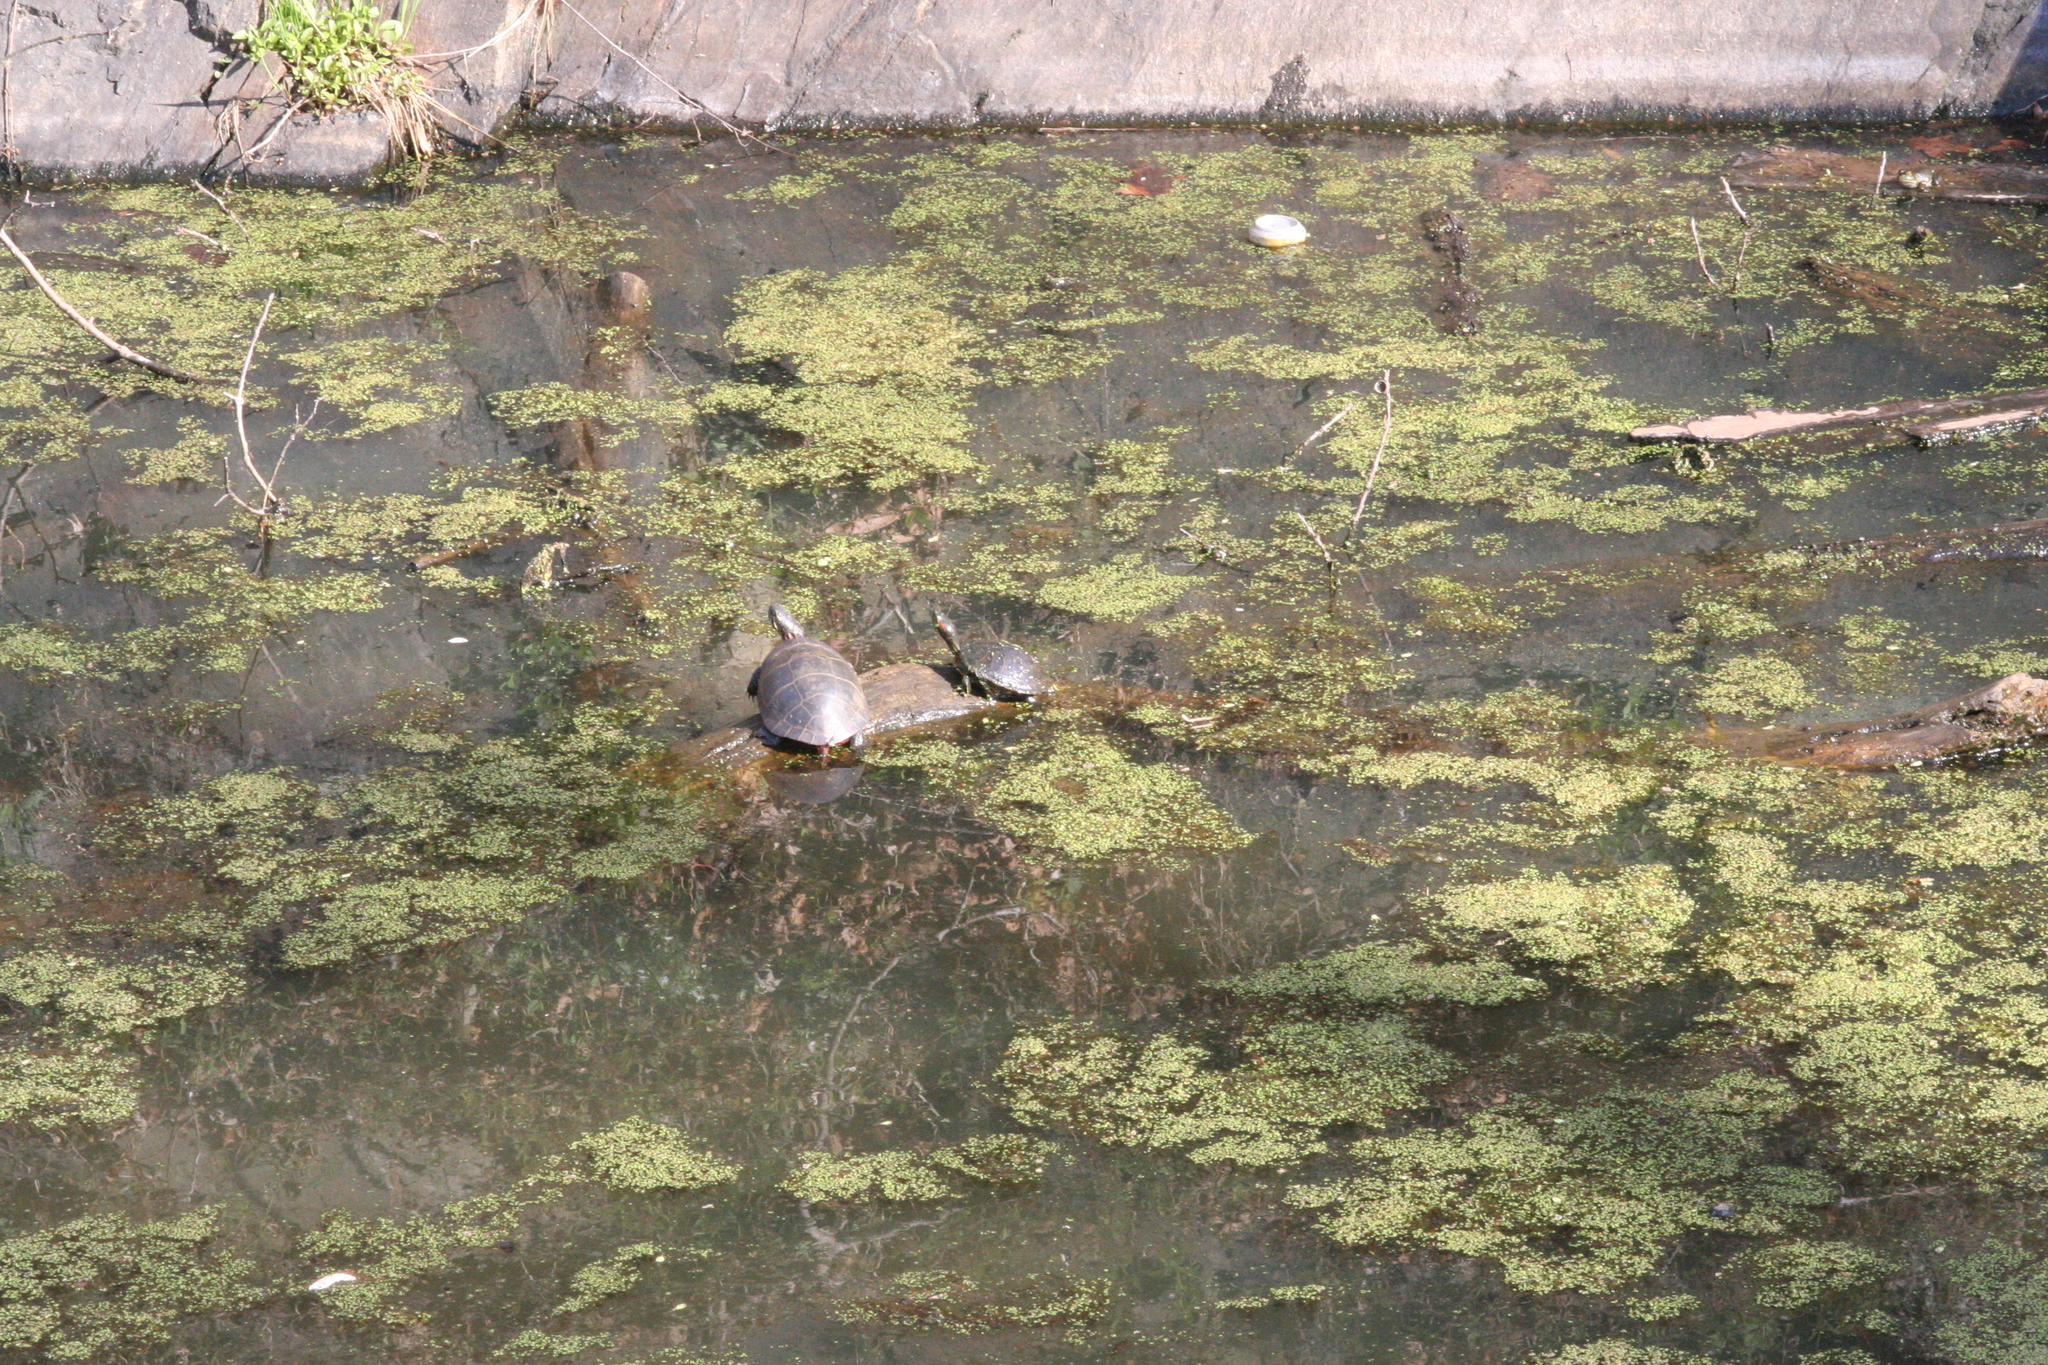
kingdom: Animalia
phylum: Chordata
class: Testudines
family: Emydidae
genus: Chrysemys
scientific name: Chrysemys picta
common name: Painted turtle
